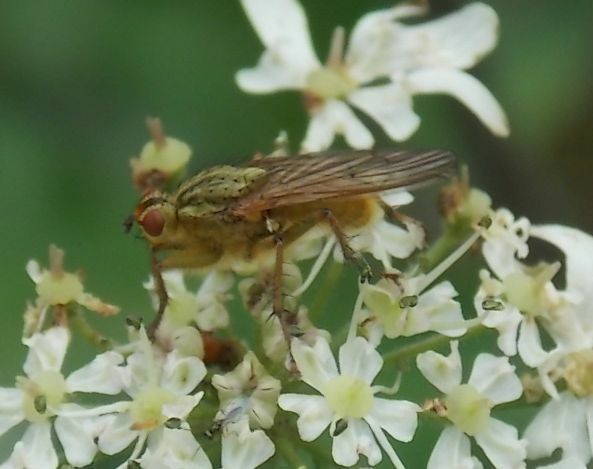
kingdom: Animalia
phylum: Arthropoda
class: Insecta
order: Diptera
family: Scathophagidae
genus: Scathophaga
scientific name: Scathophaga stercoraria
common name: Yellow dung fly
